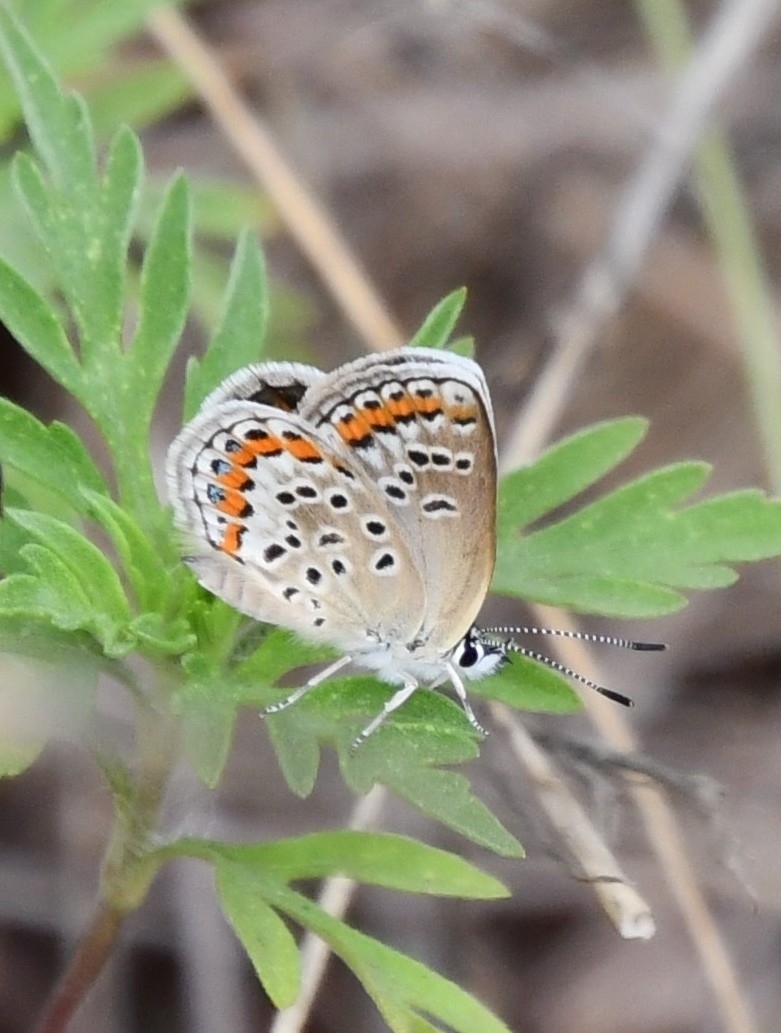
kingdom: Animalia
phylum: Arthropoda
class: Insecta
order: Lepidoptera
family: Lycaenidae
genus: Plebejus
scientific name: Plebejus argus
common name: Silver-studded blue
